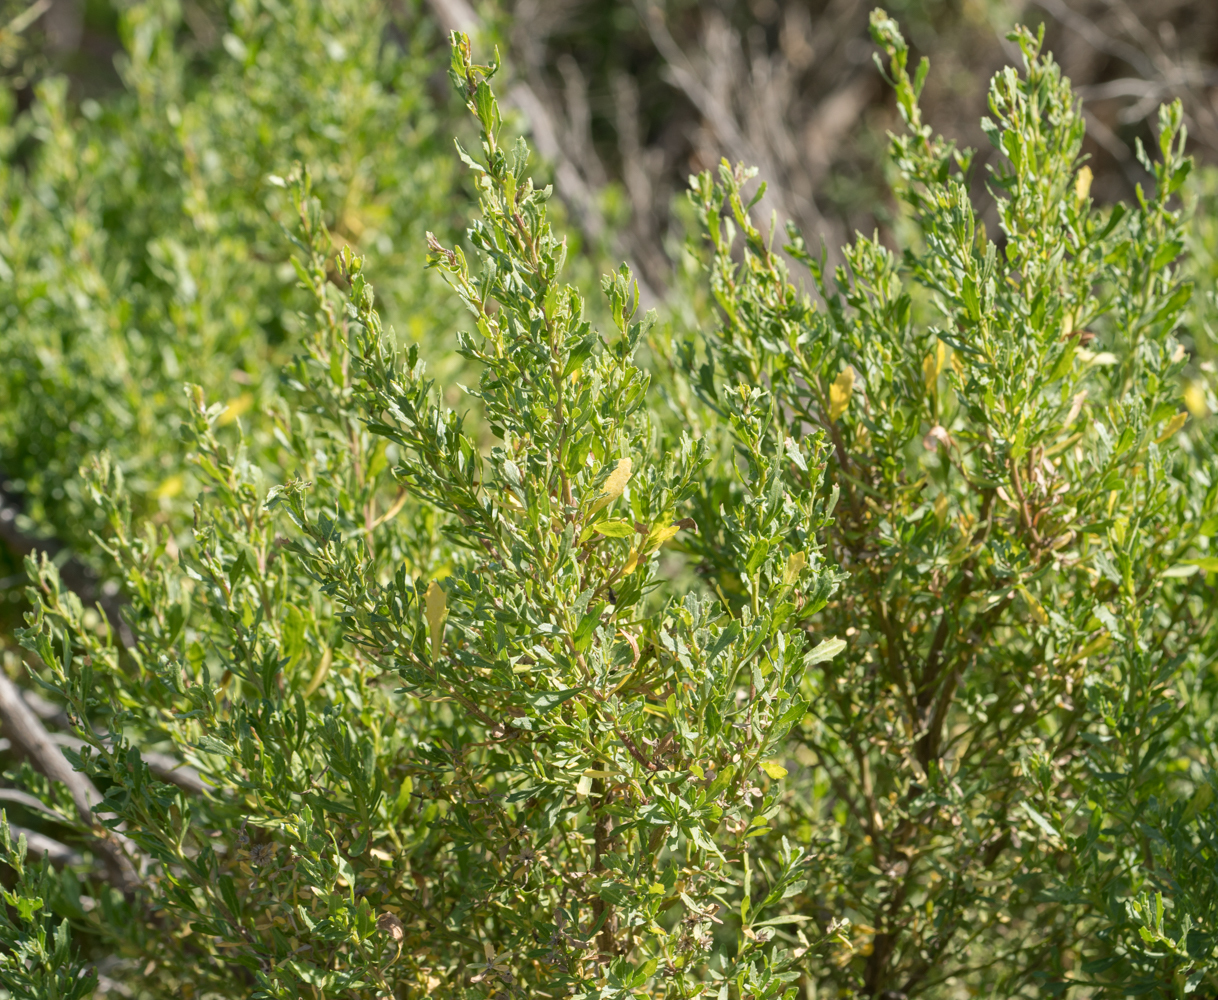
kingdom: Plantae
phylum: Tracheophyta
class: Magnoliopsida
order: Asterales
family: Asteraceae
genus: Baccharis
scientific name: Baccharis pilularis
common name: Coyotebrush
